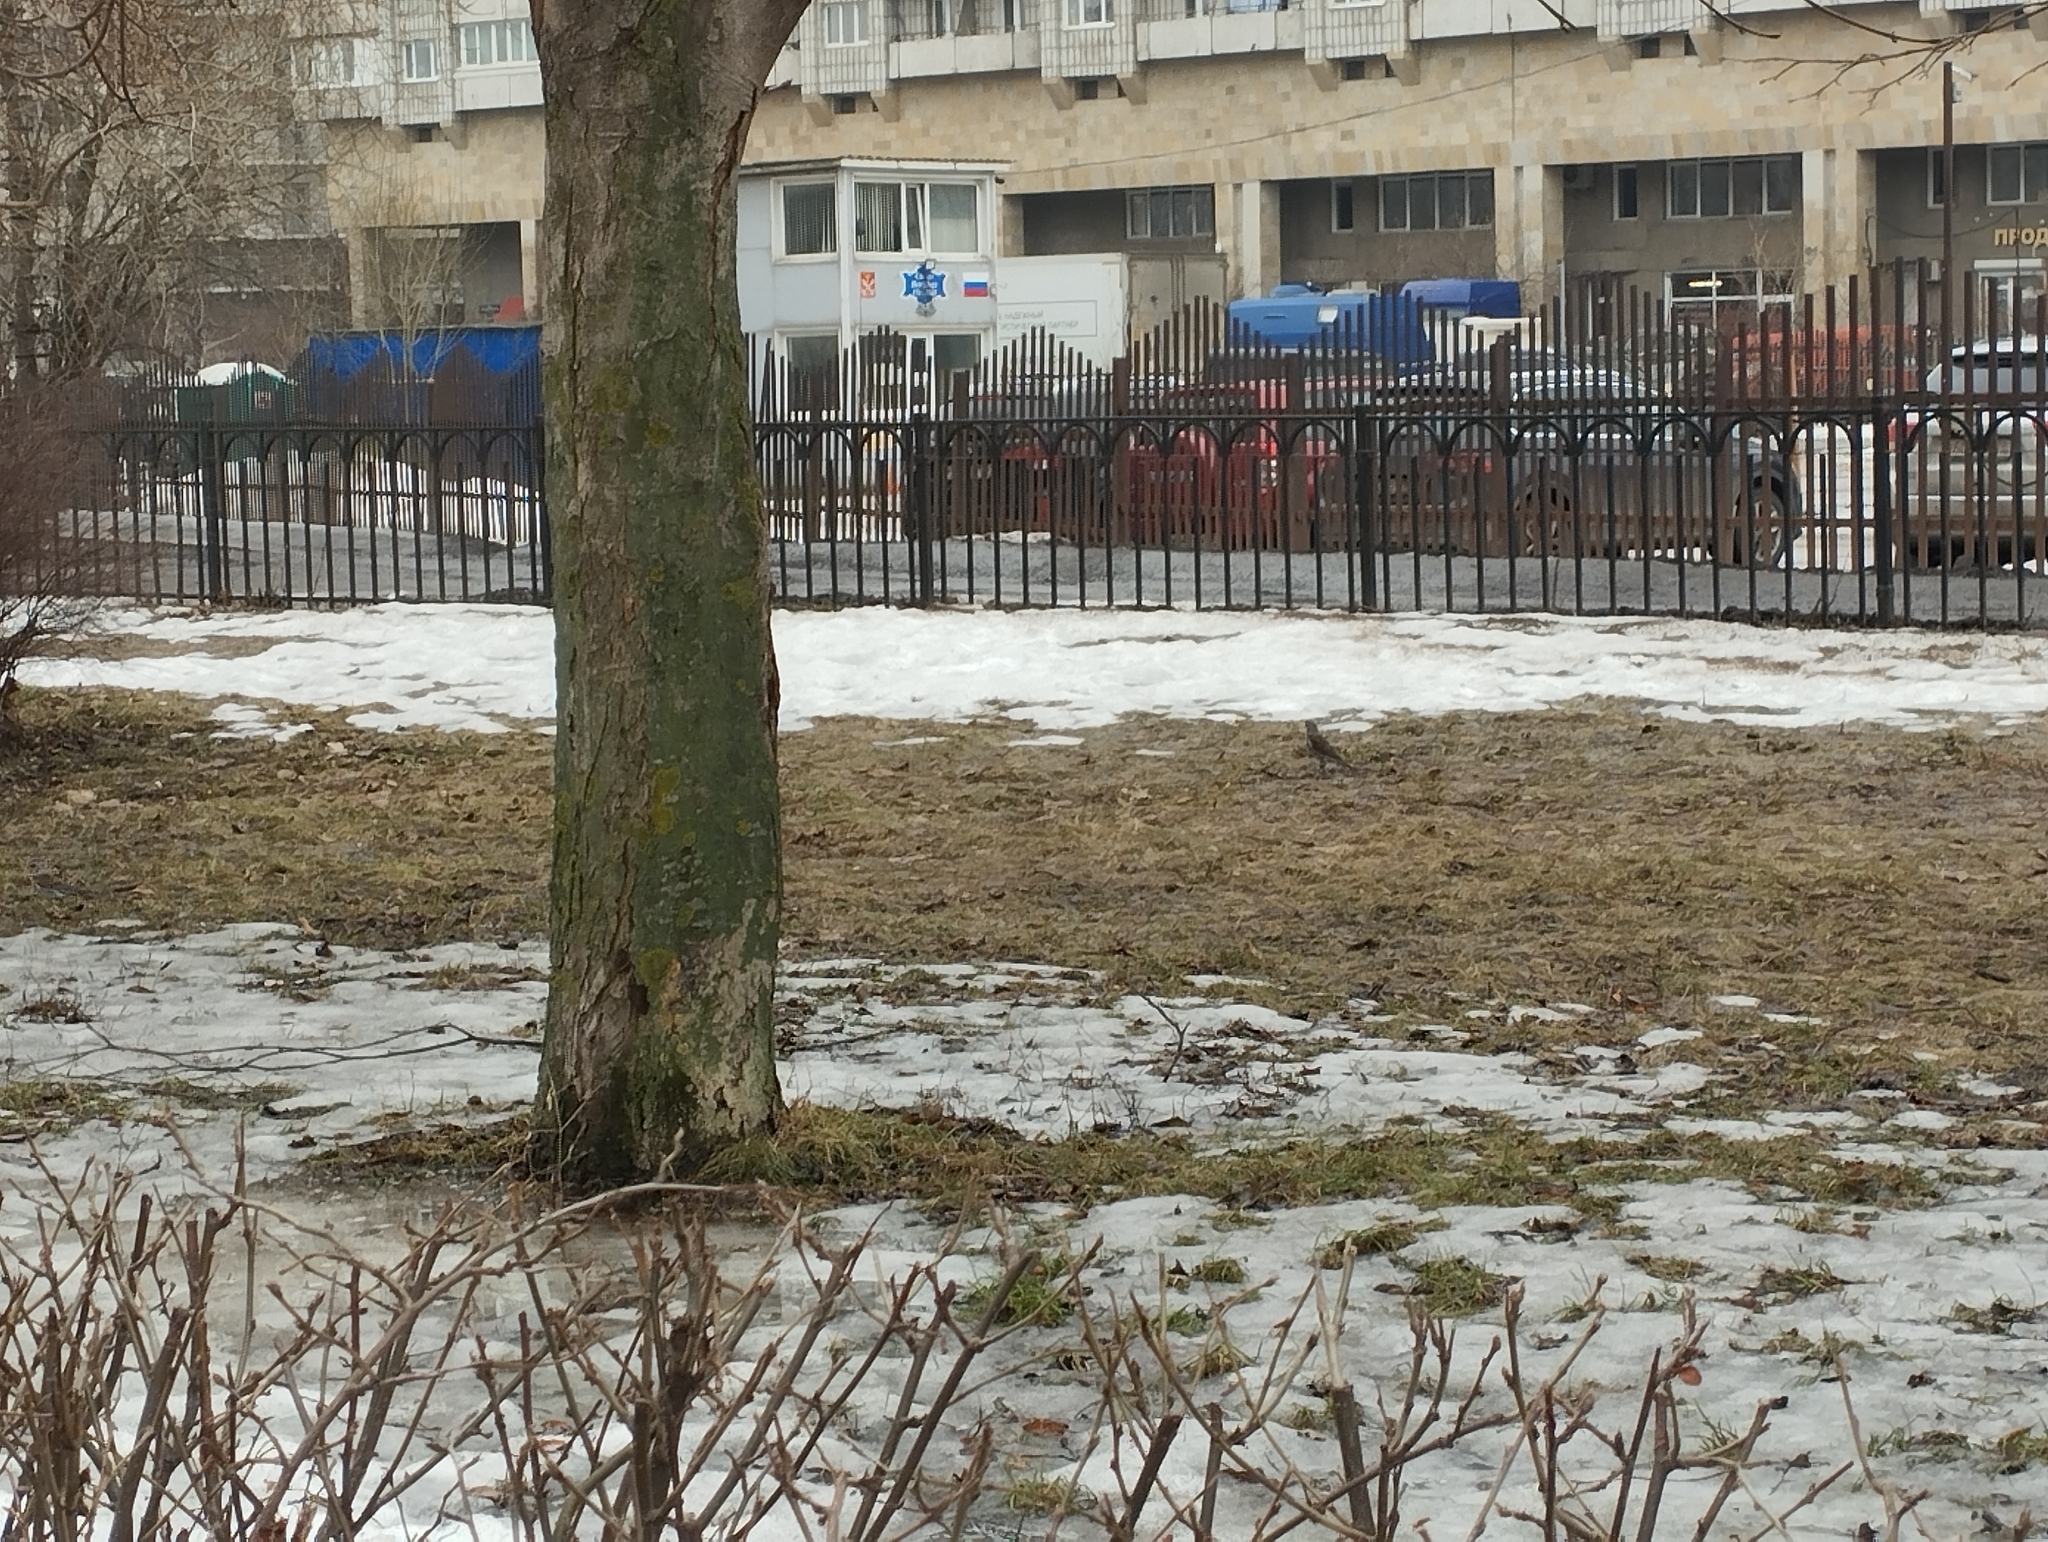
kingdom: Animalia
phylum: Chordata
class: Aves
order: Passeriformes
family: Turdidae
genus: Turdus
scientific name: Turdus pilaris
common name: Fieldfare
